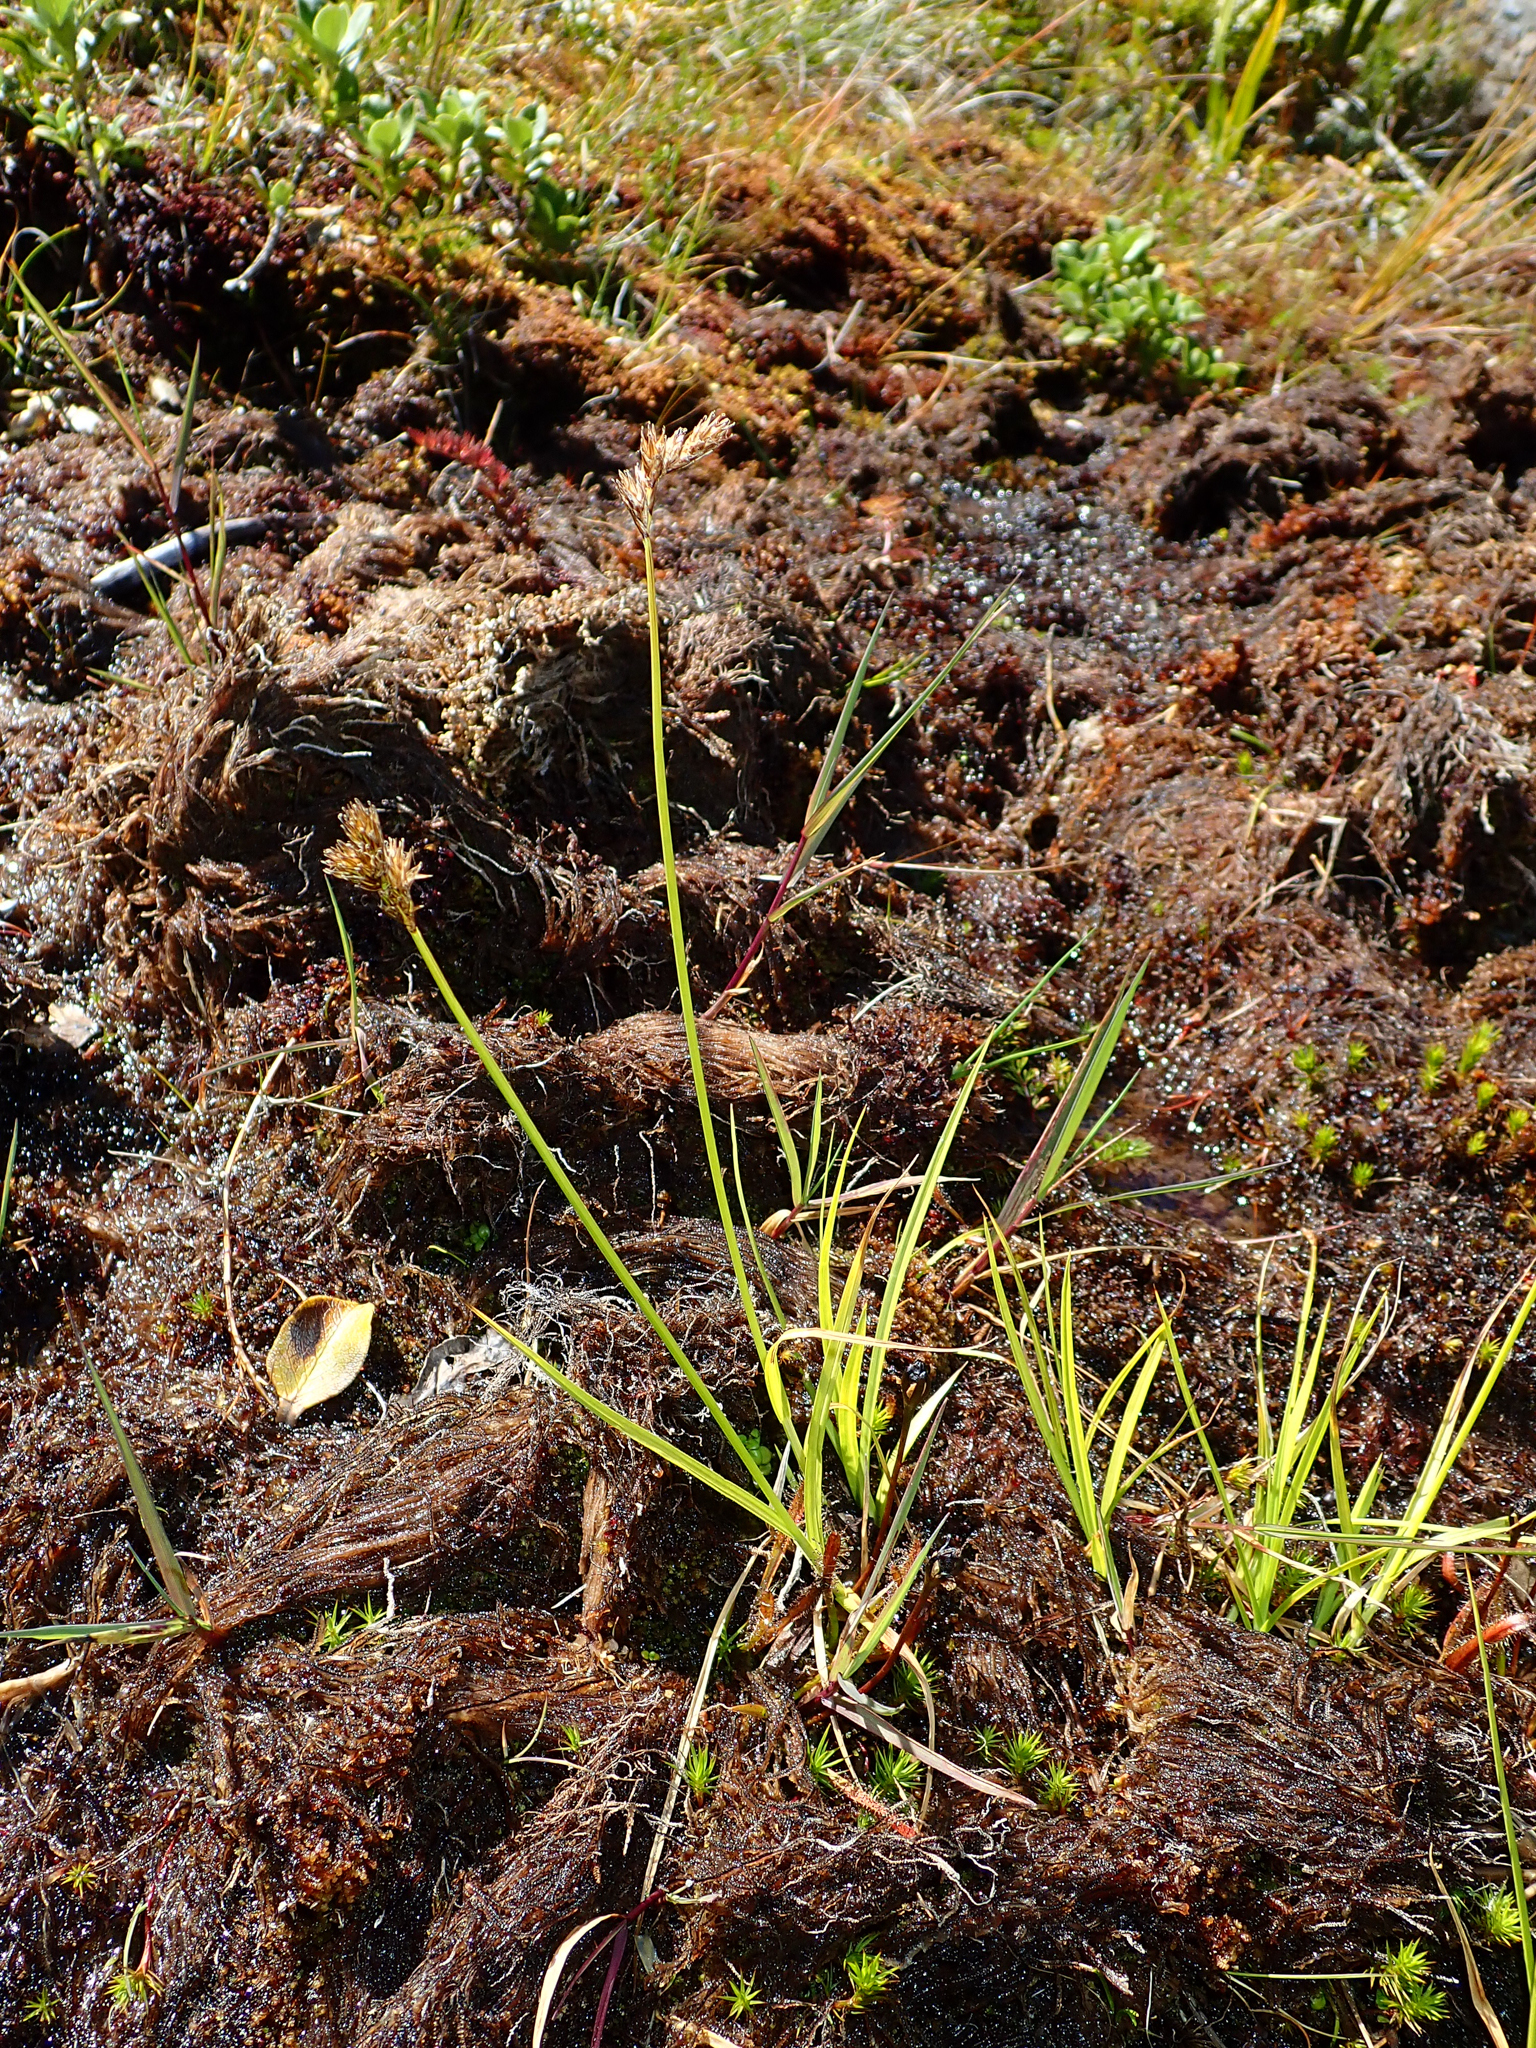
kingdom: Plantae
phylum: Tracheophyta
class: Liliopsida
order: Poales
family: Cyperaceae
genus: Carex
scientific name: Carex leporina
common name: Oval sedge
